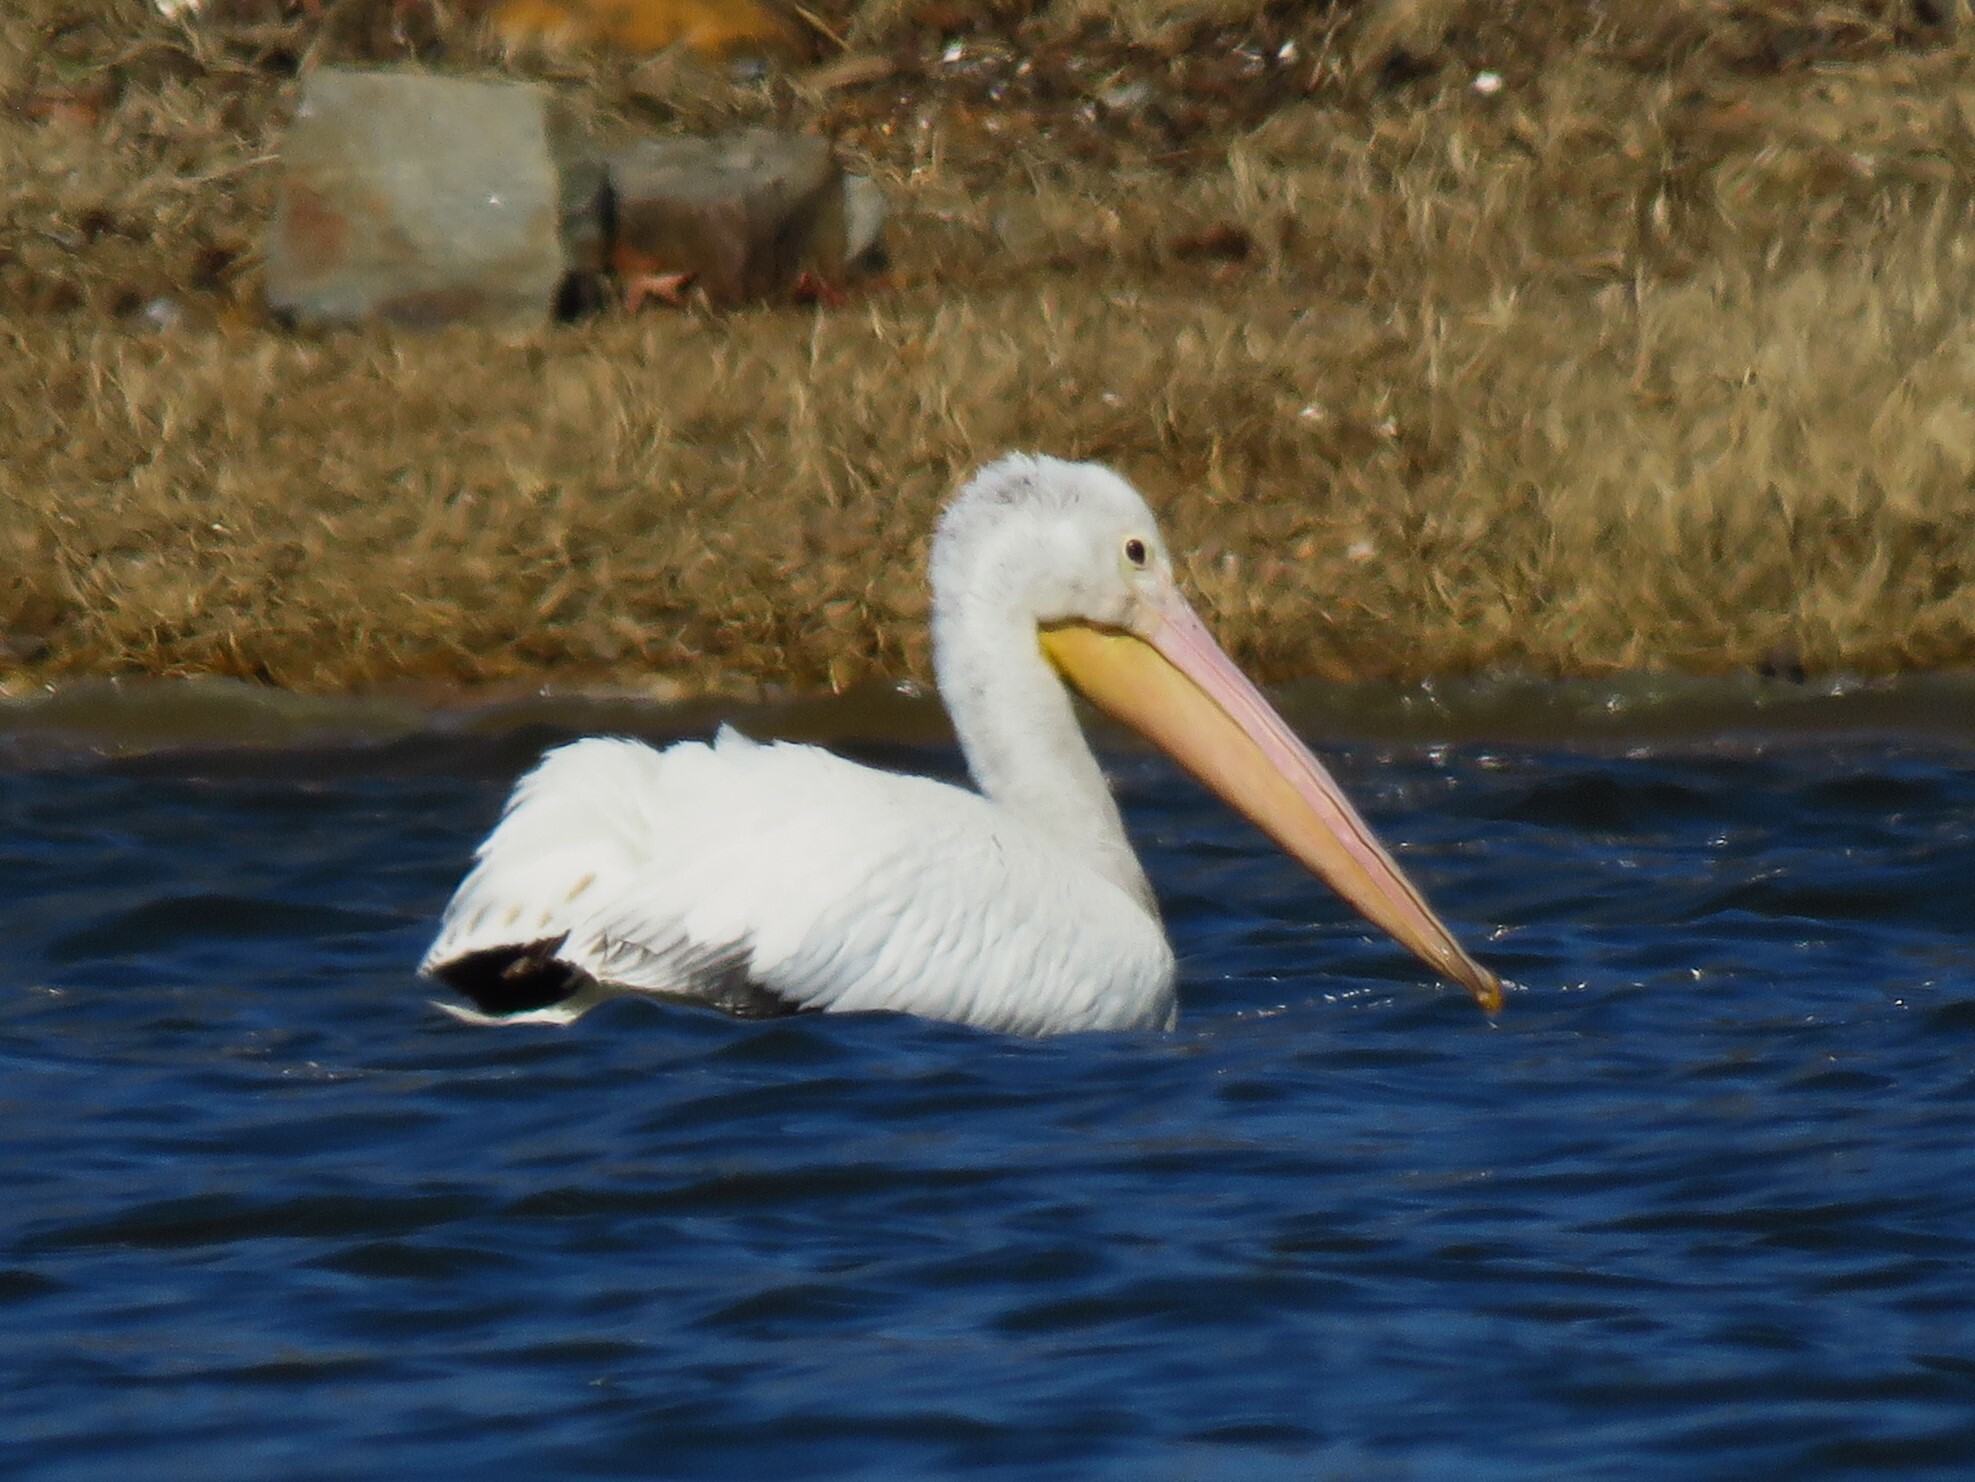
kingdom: Animalia
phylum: Chordata
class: Aves
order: Pelecaniformes
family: Pelecanidae
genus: Pelecanus
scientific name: Pelecanus erythrorhynchos
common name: American white pelican
